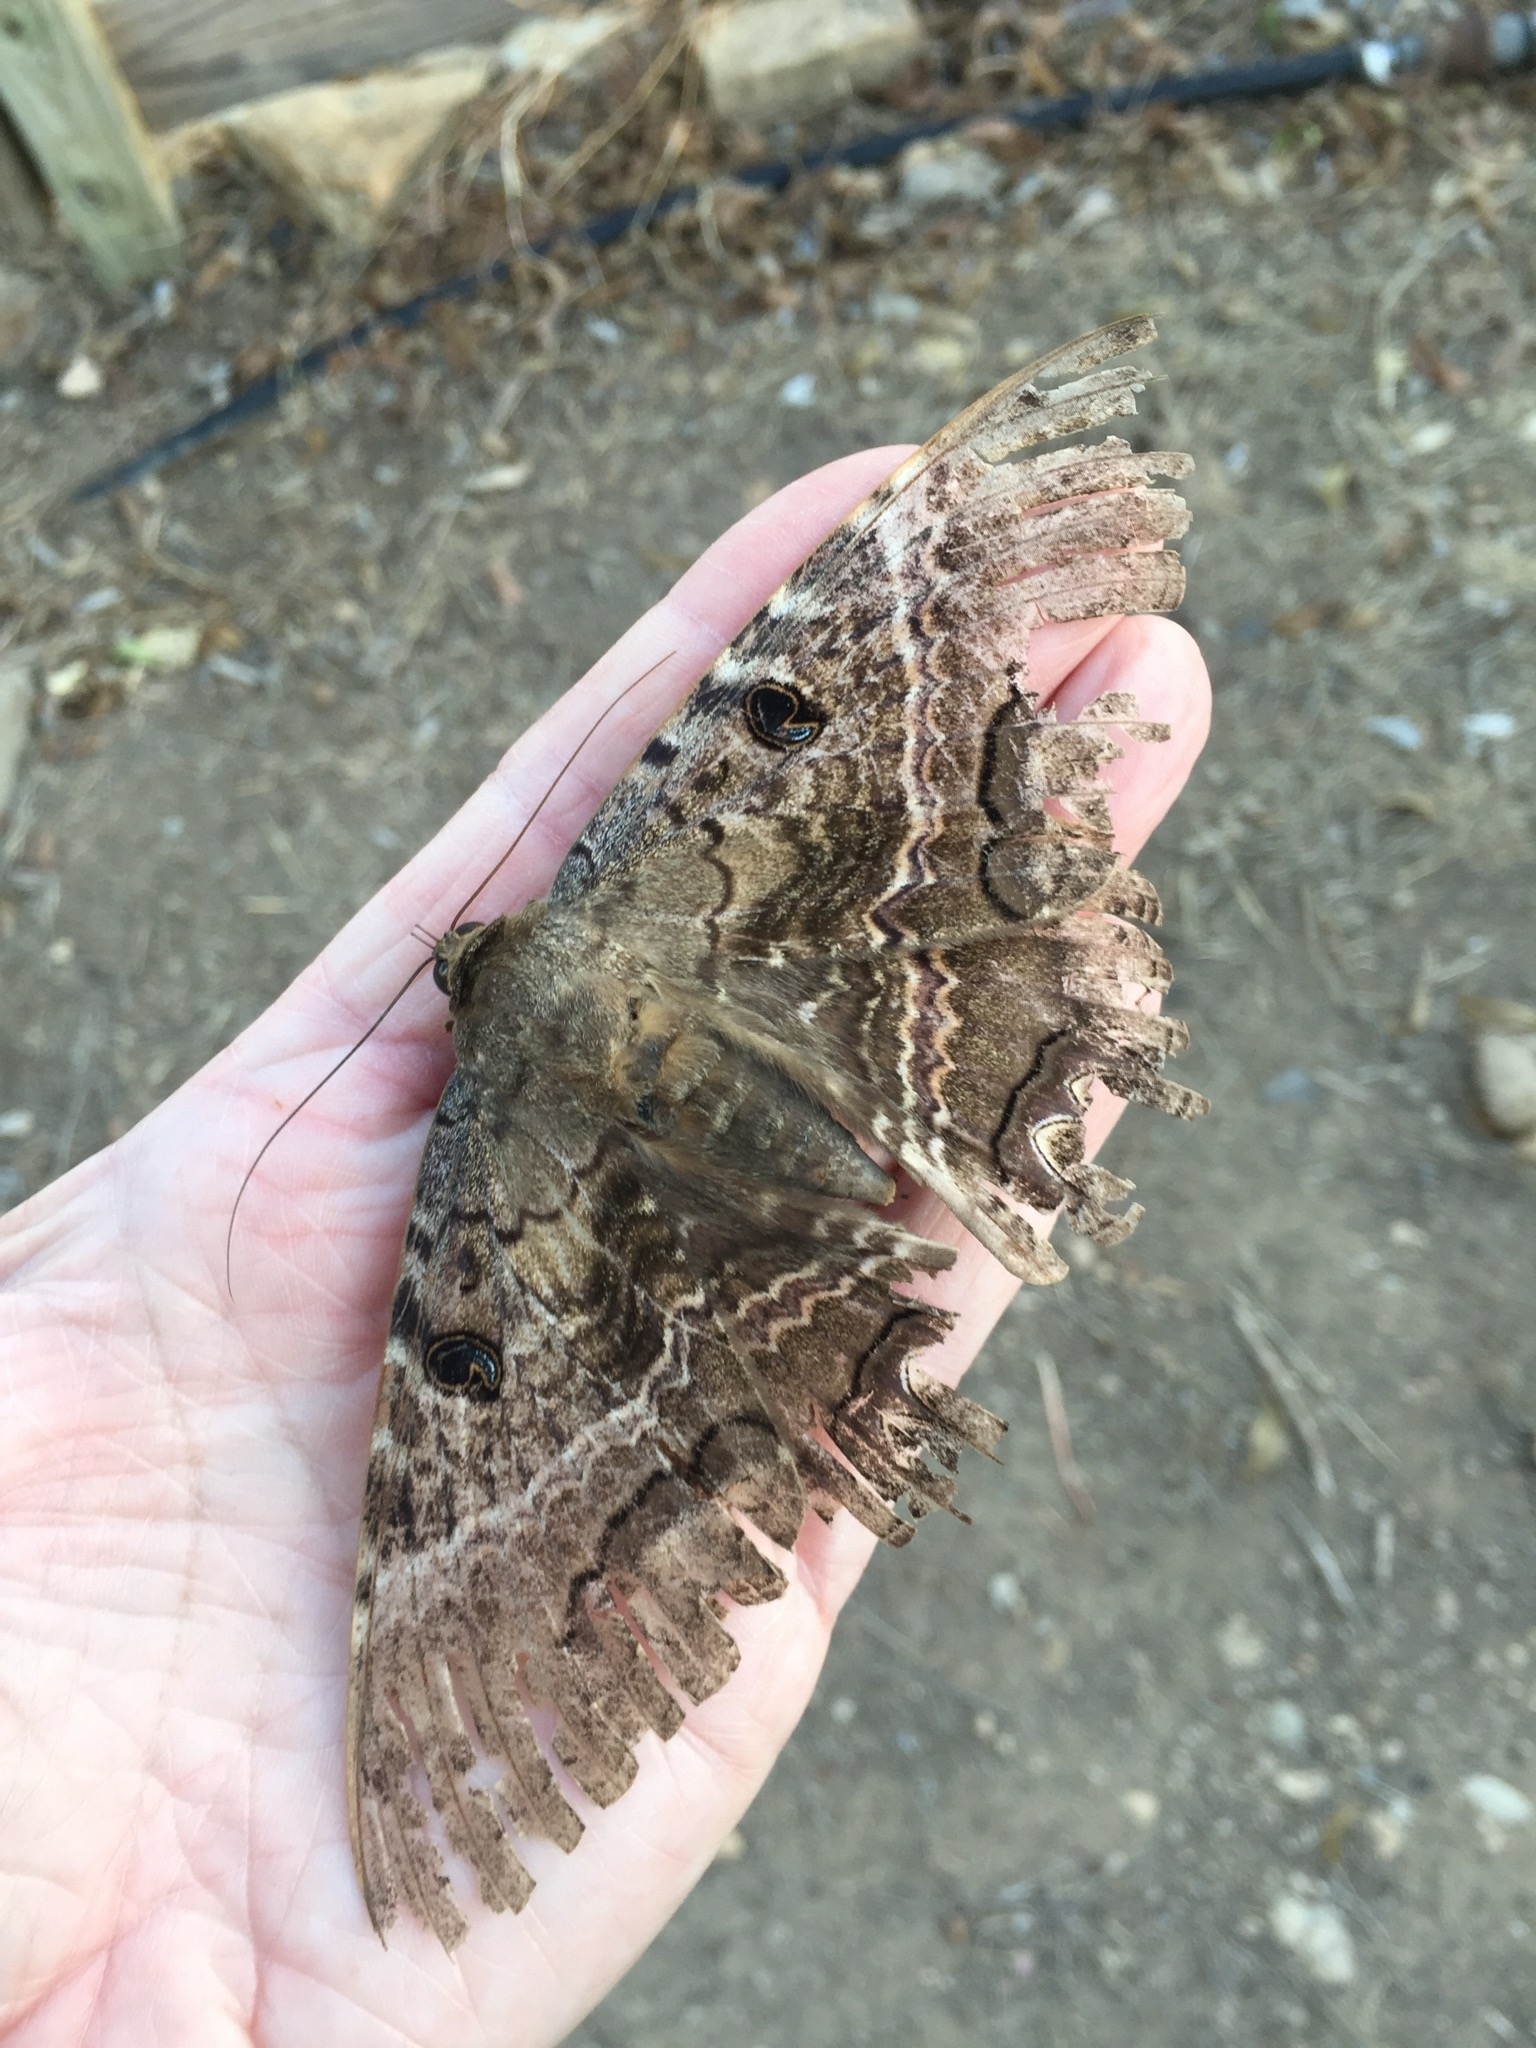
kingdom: Animalia
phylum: Arthropoda
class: Insecta
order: Lepidoptera
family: Erebidae
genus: Ascalapha
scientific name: Ascalapha odorata
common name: Black witch
